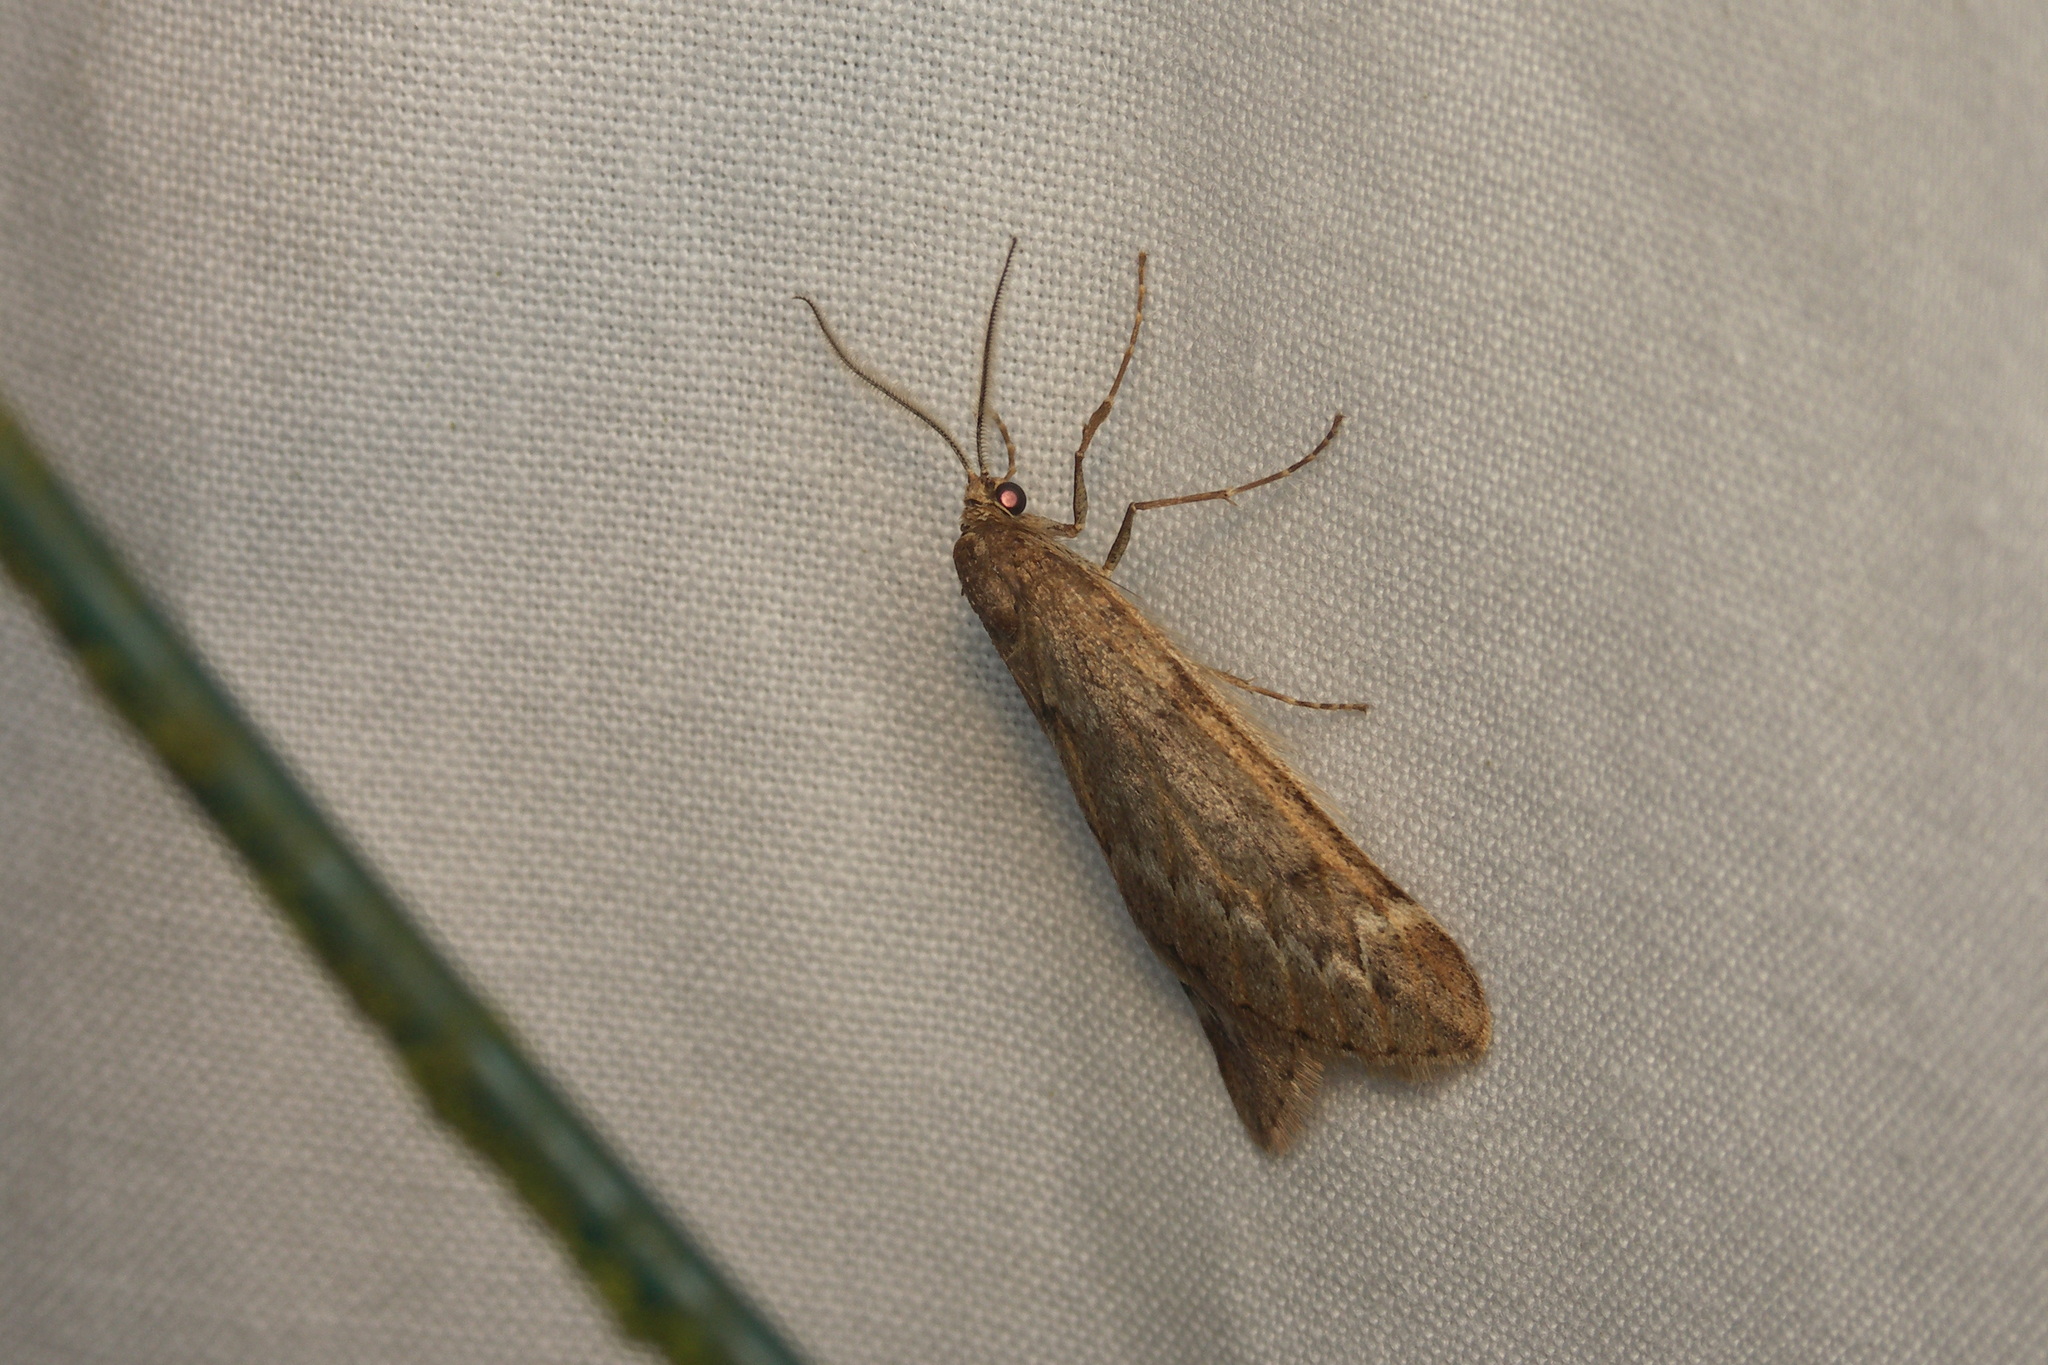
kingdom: Animalia
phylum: Arthropoda
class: Insecta
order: Lepidoptera
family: Geometridae
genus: Alsophila
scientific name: Alsophila aescularia
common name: March moth
